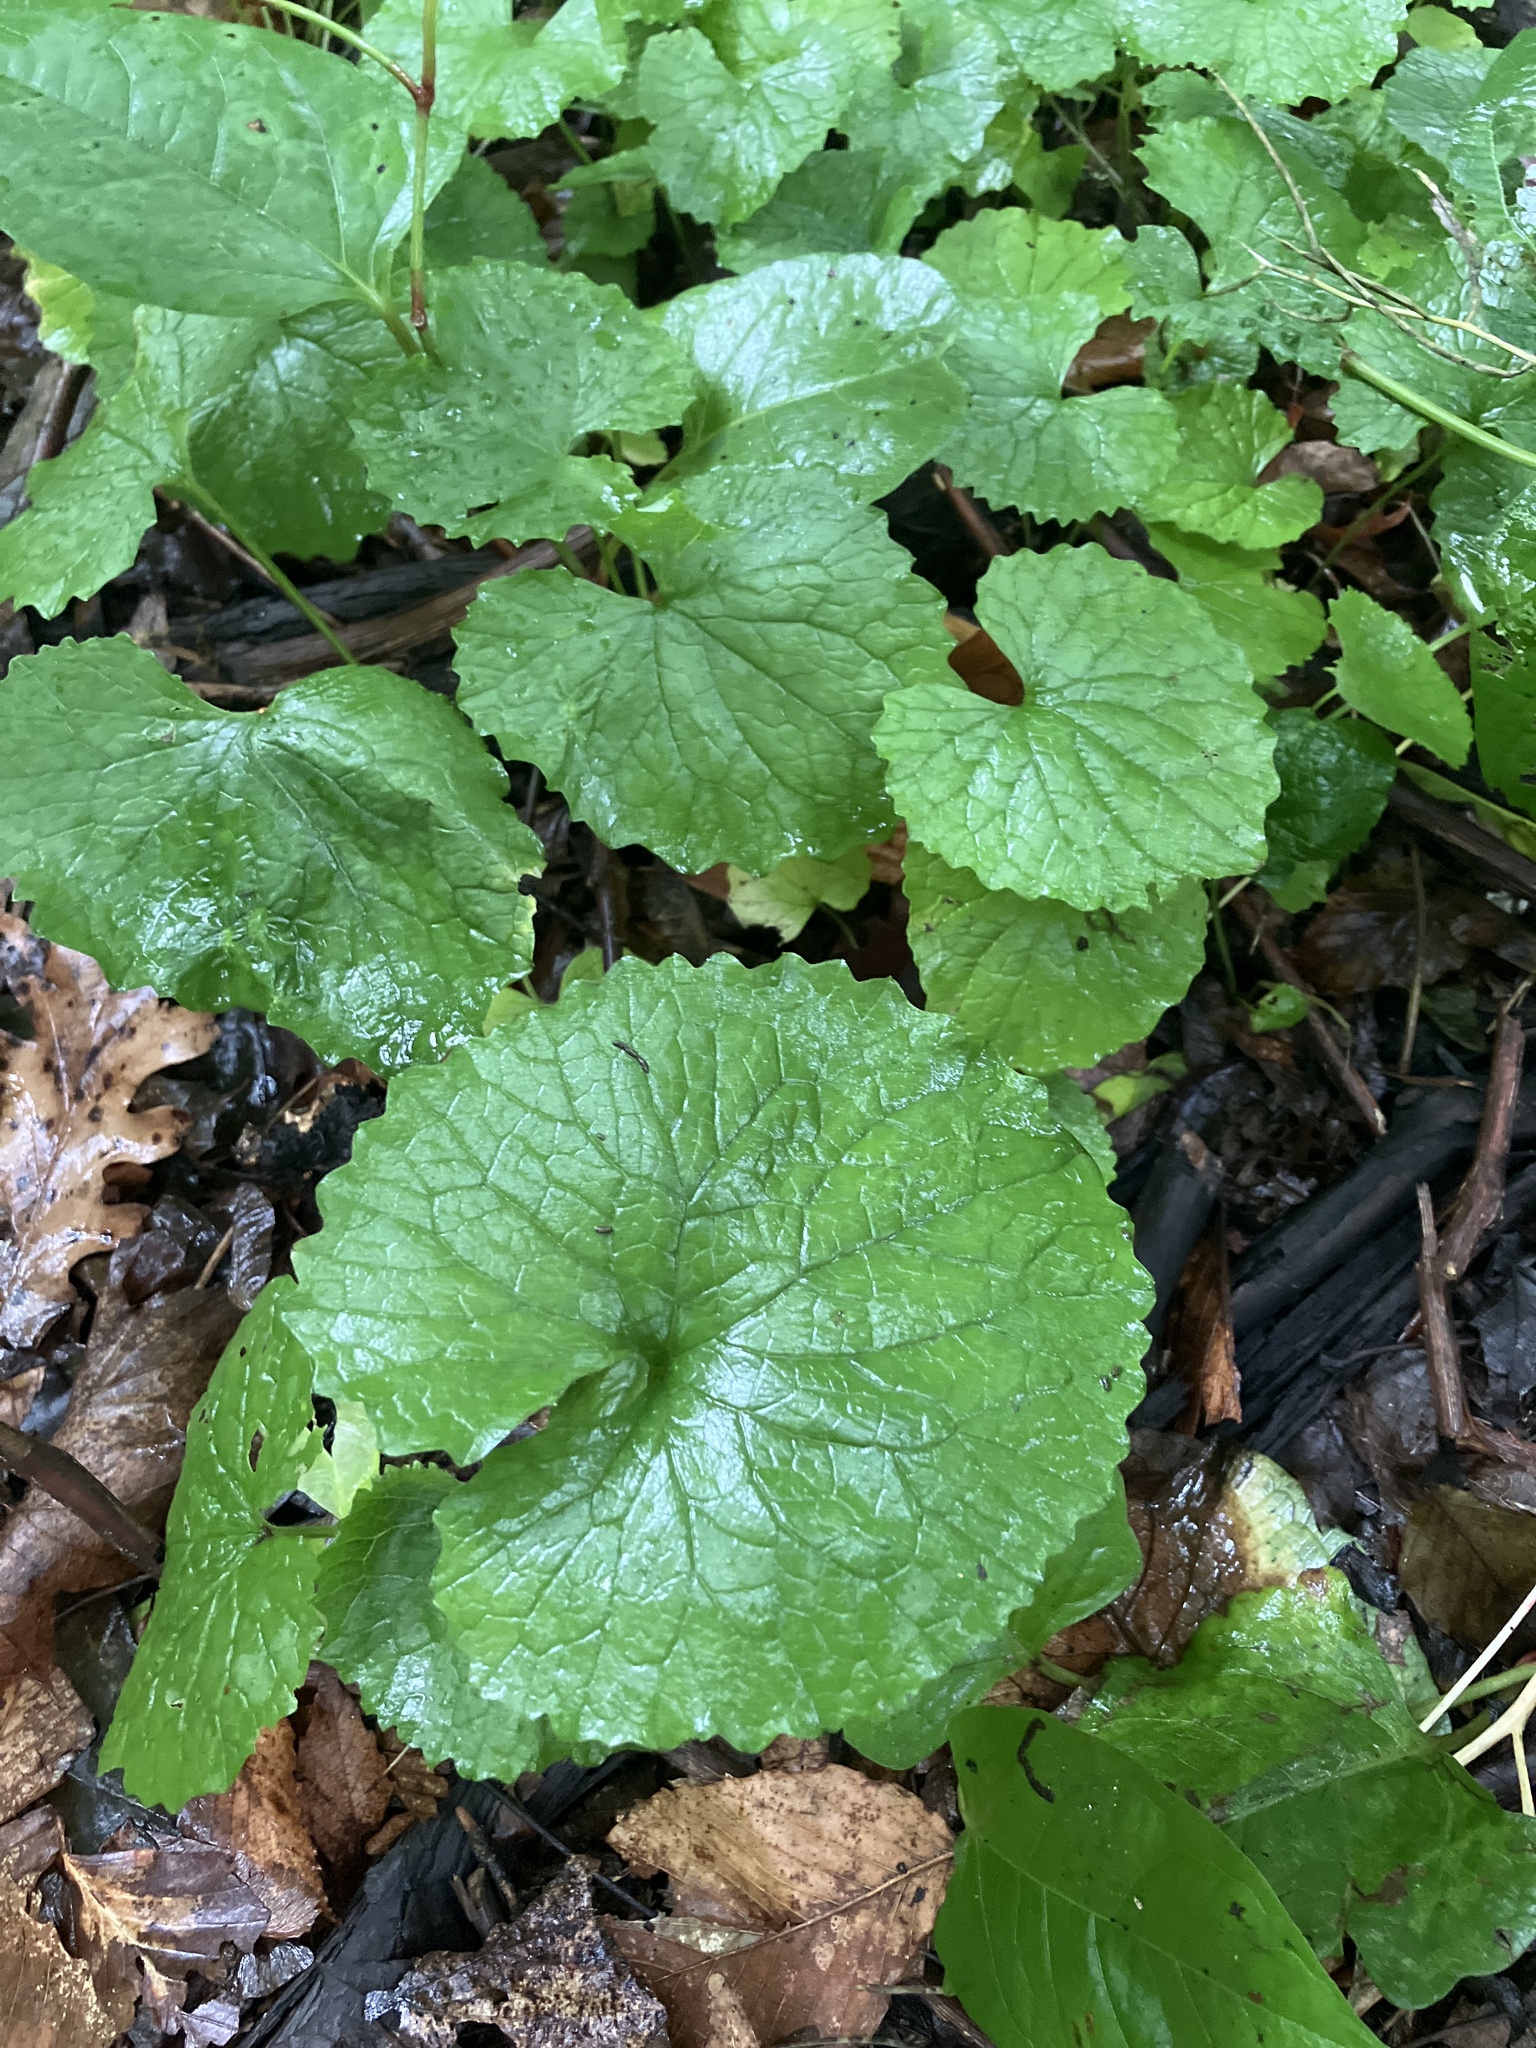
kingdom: Plantae
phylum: Tracheophyta
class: Magnoliopsida
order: Brassicales
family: Brassicaceae
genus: Alliaria
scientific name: Alliaria petiolata
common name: Garlic mustard
